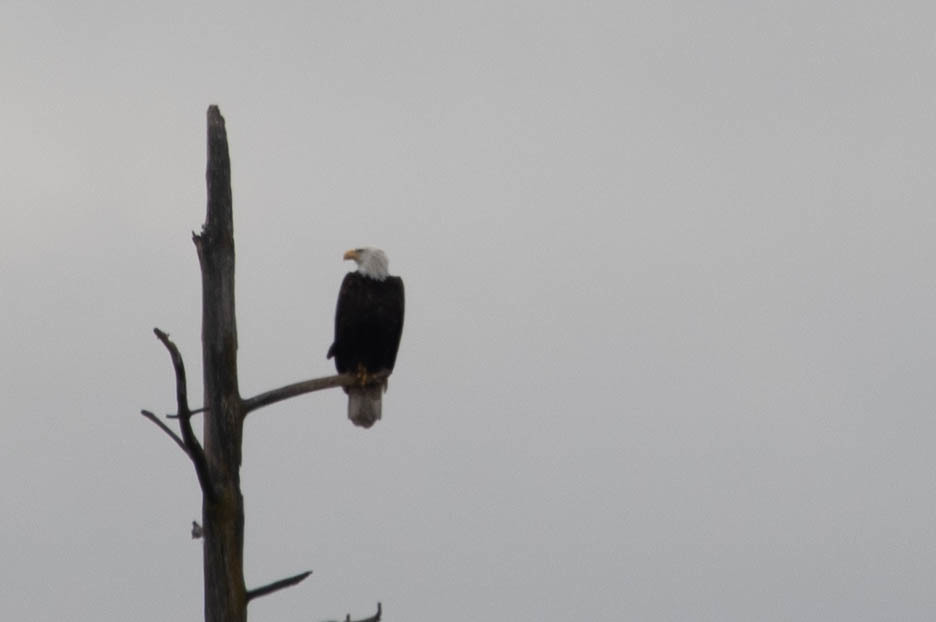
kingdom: Animalia
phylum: Chordata
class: Aves
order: Accipitriformes
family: Accipitridae
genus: Haliaeetus
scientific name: Haliaeetus leucocephalus
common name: Bald eagle
